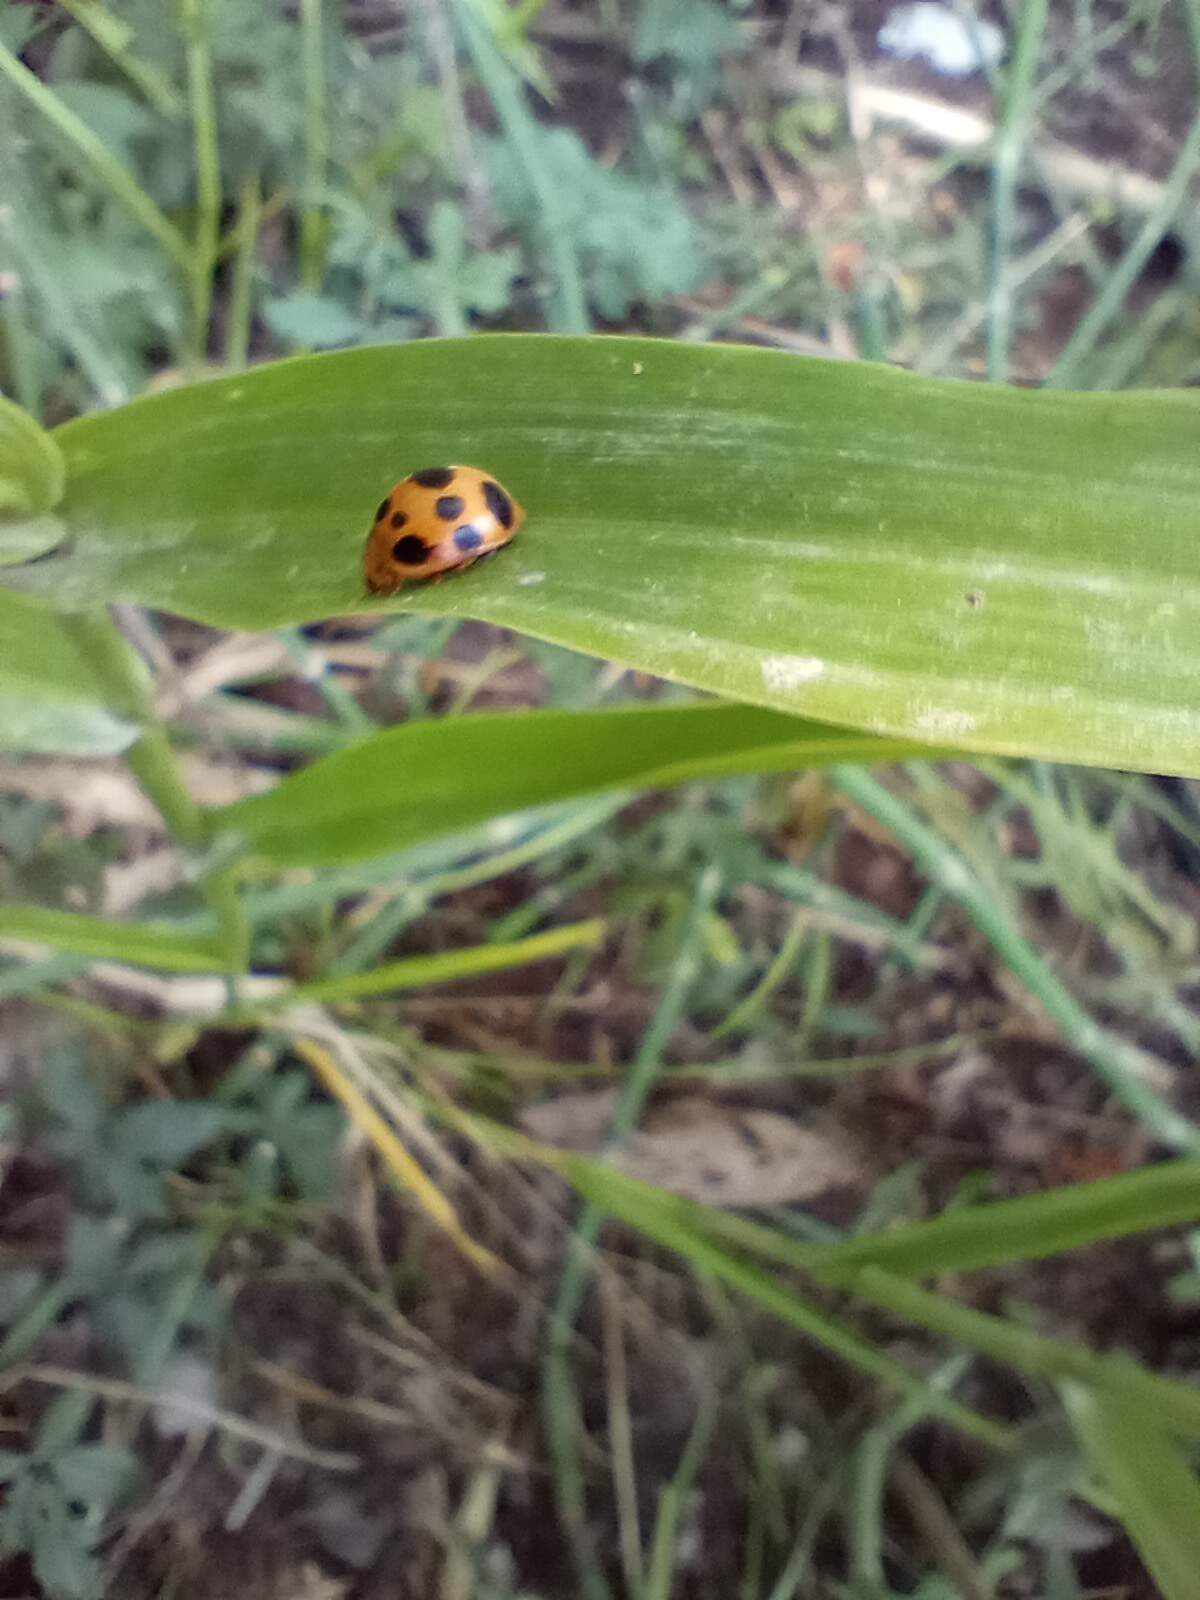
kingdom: Animalia
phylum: Arthropoda
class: Insecta
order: Coleoptera
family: Coccinellidae
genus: Epilachna
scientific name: Epilachna borealis
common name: Squash beetle
